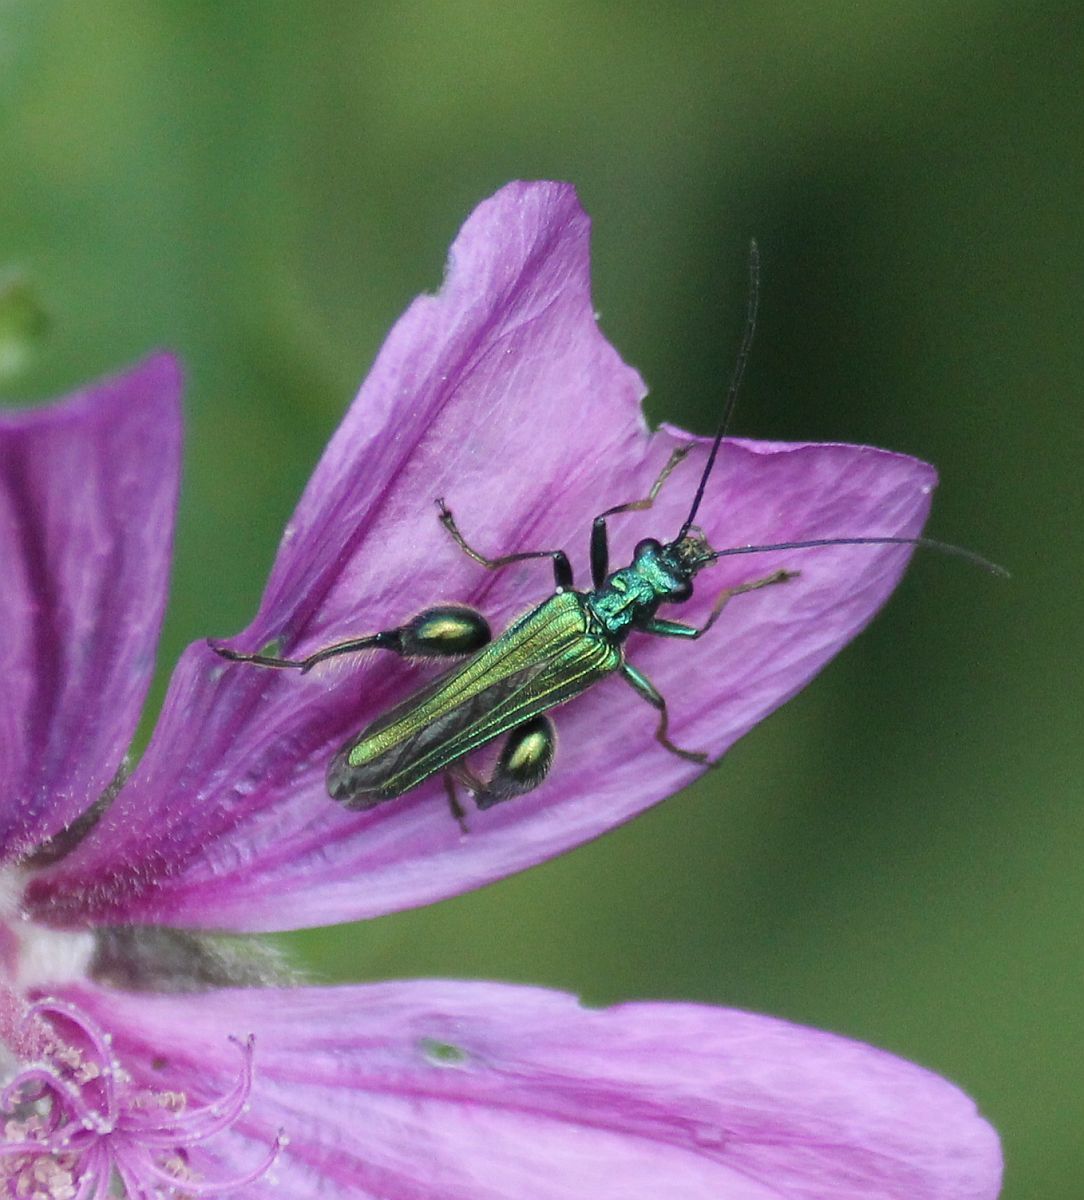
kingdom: Animalia
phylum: Arthropoda
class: Insecta
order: Coleoptera
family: Oedemeridae
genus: Oedemera
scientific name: Oedemera nobilis
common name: Swollen-thighed beetle
